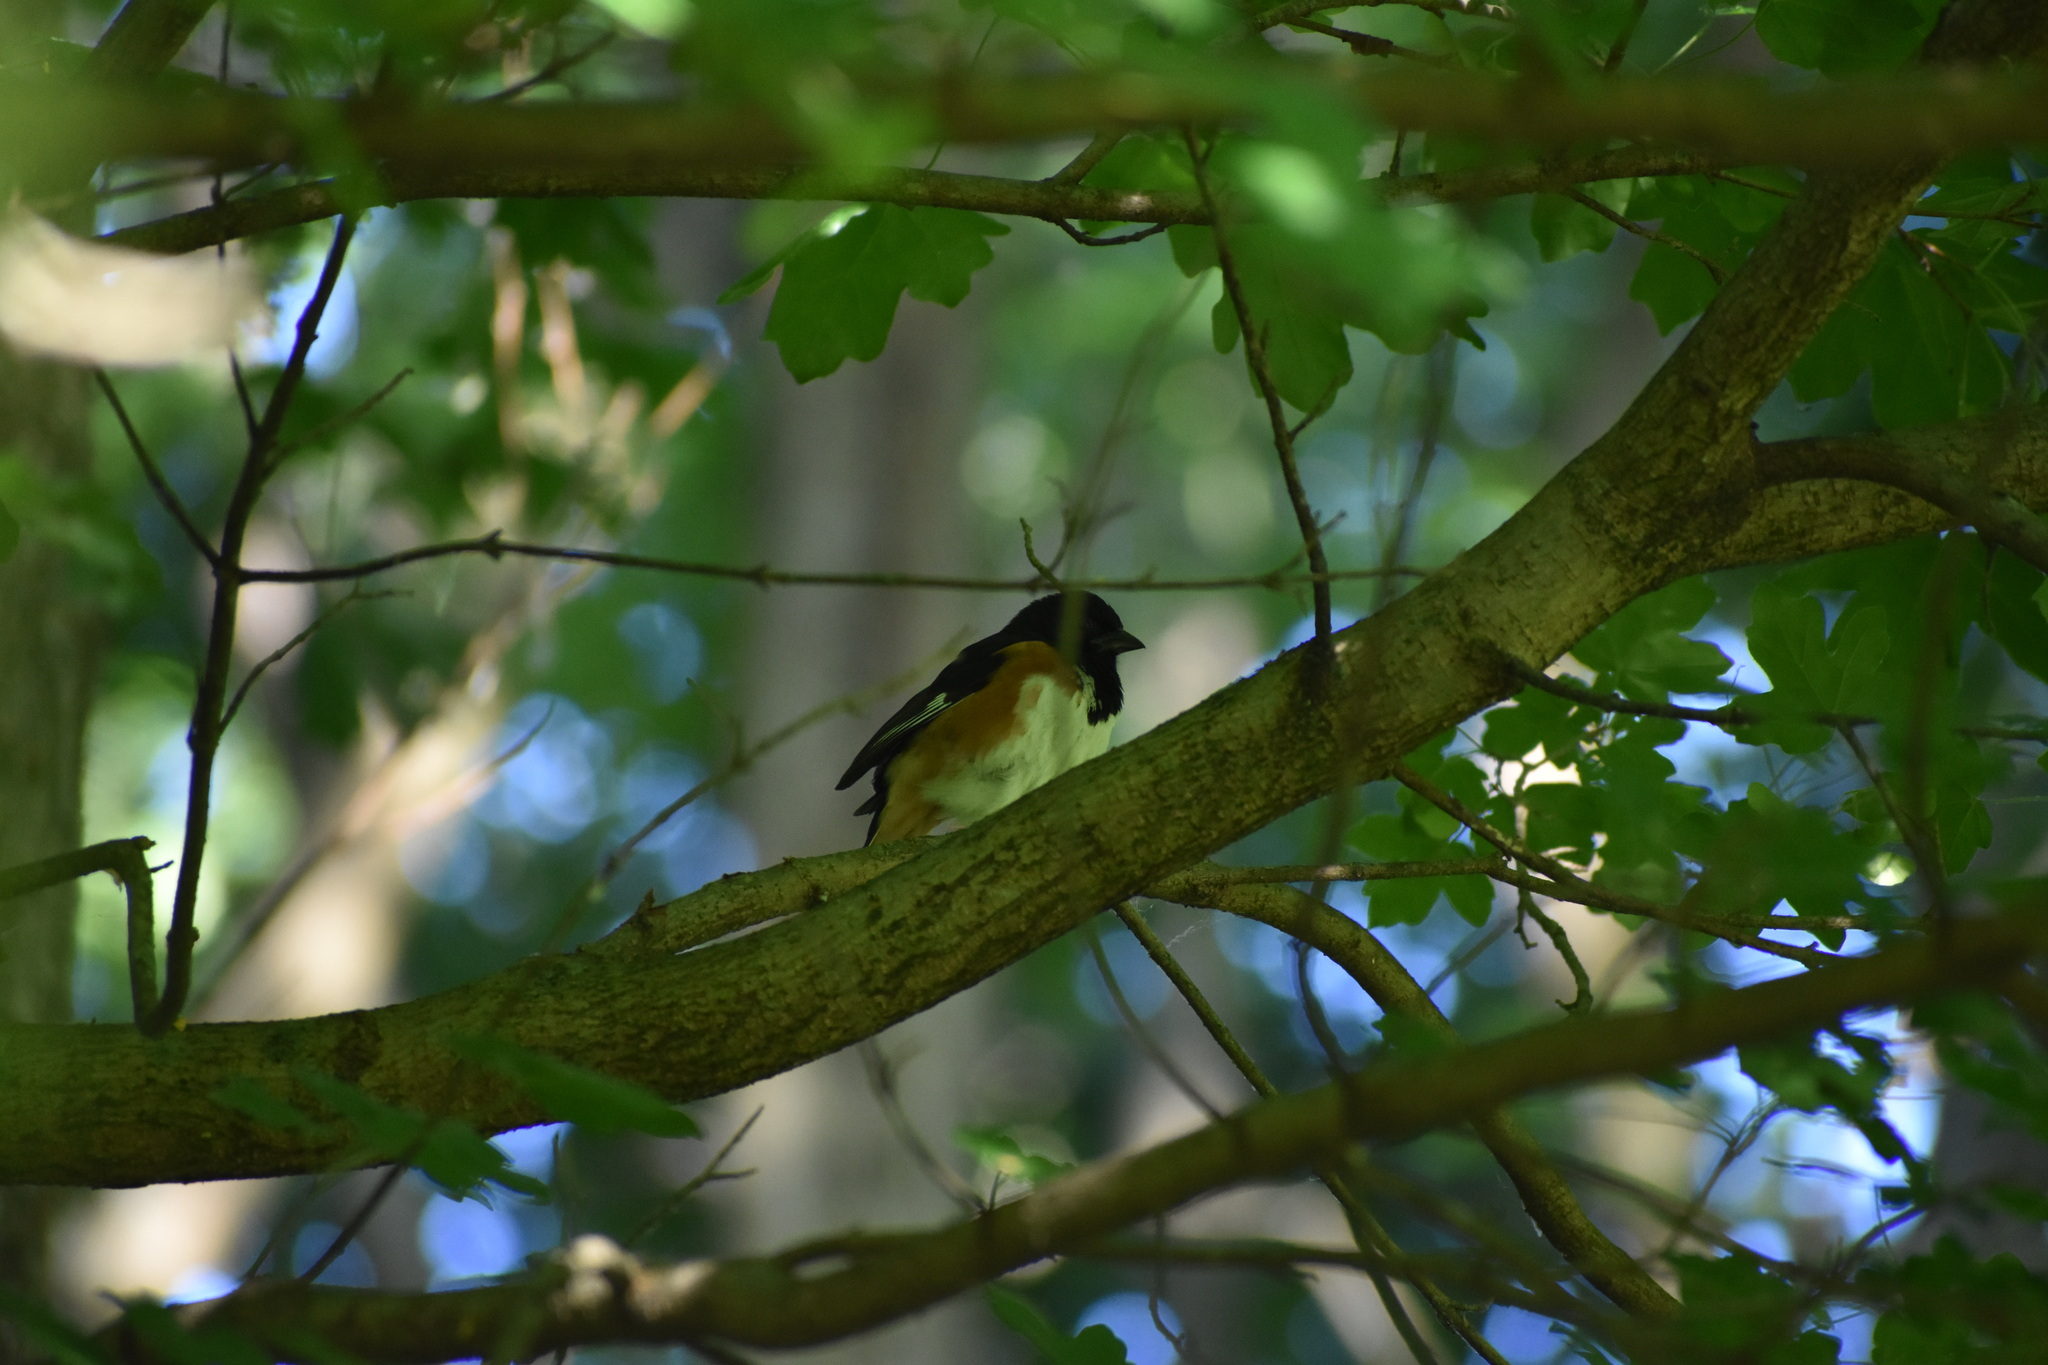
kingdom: Animalia
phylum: Chordata
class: Aves
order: Passeriformes
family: Passerellidae
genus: Pipilo
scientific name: Pipilo erythrophthalmus
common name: Eastern towhee
